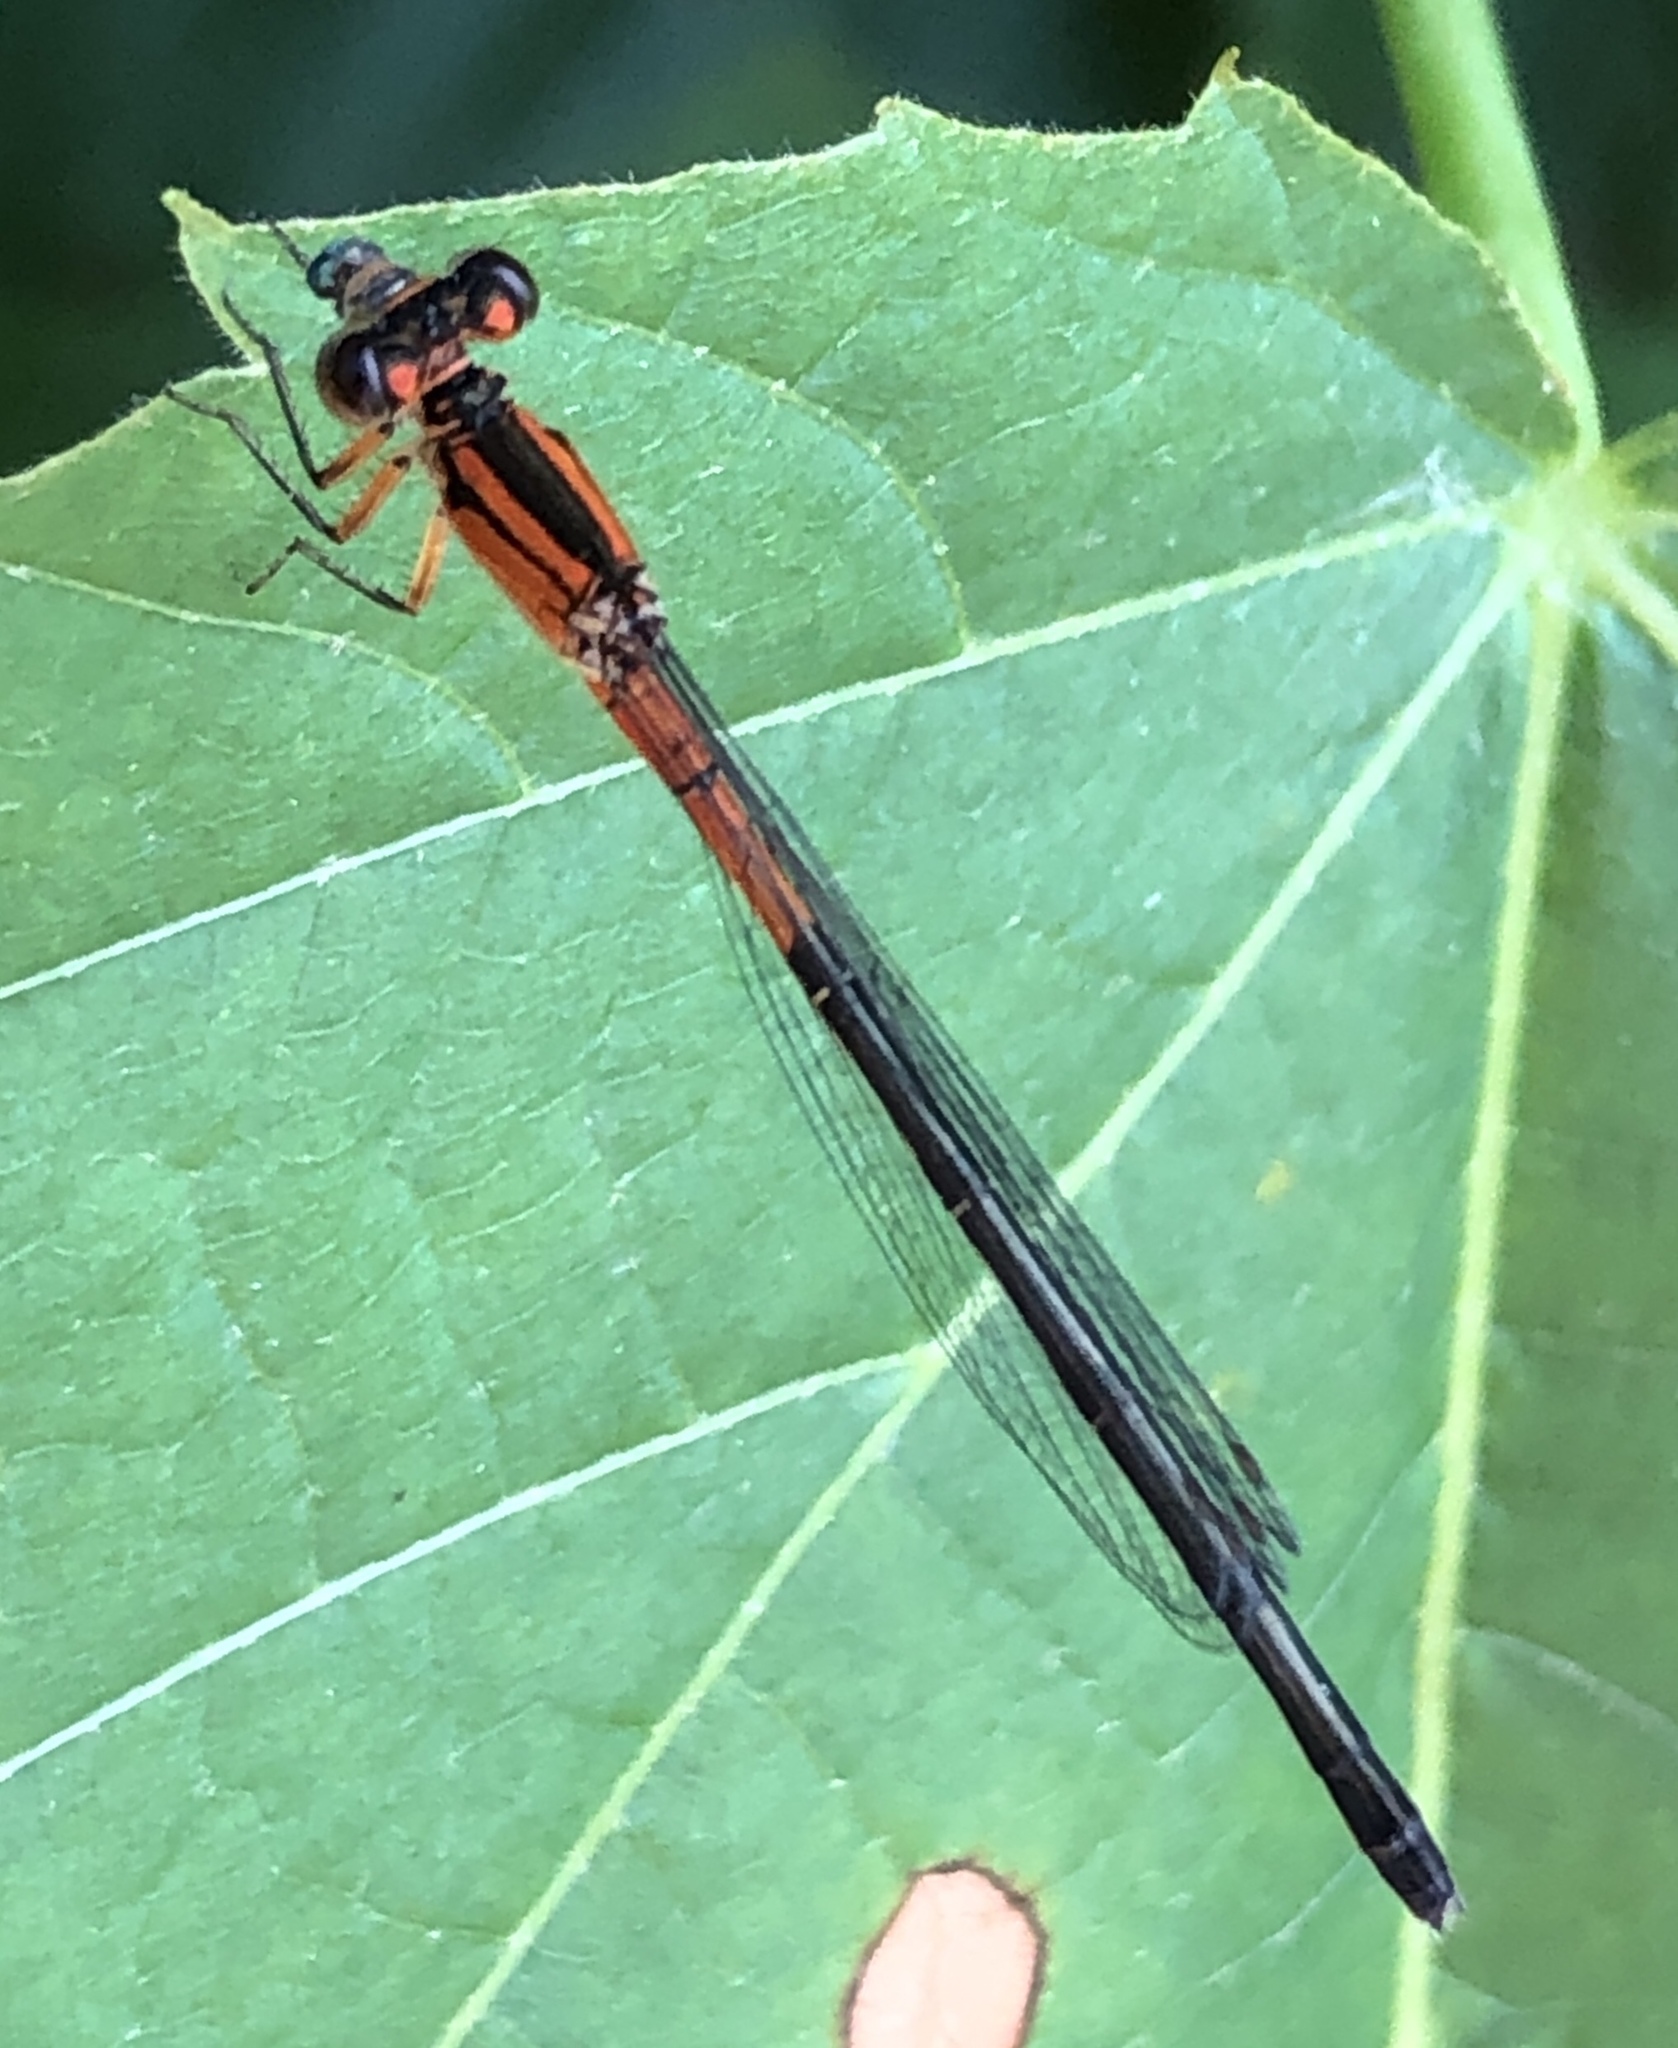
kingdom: Animalia
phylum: Arthropoda
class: Insecta
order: Odonata
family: Coenagrionidae
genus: Ischnura
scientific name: Ischnura verticalis
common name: Eastern forktail
